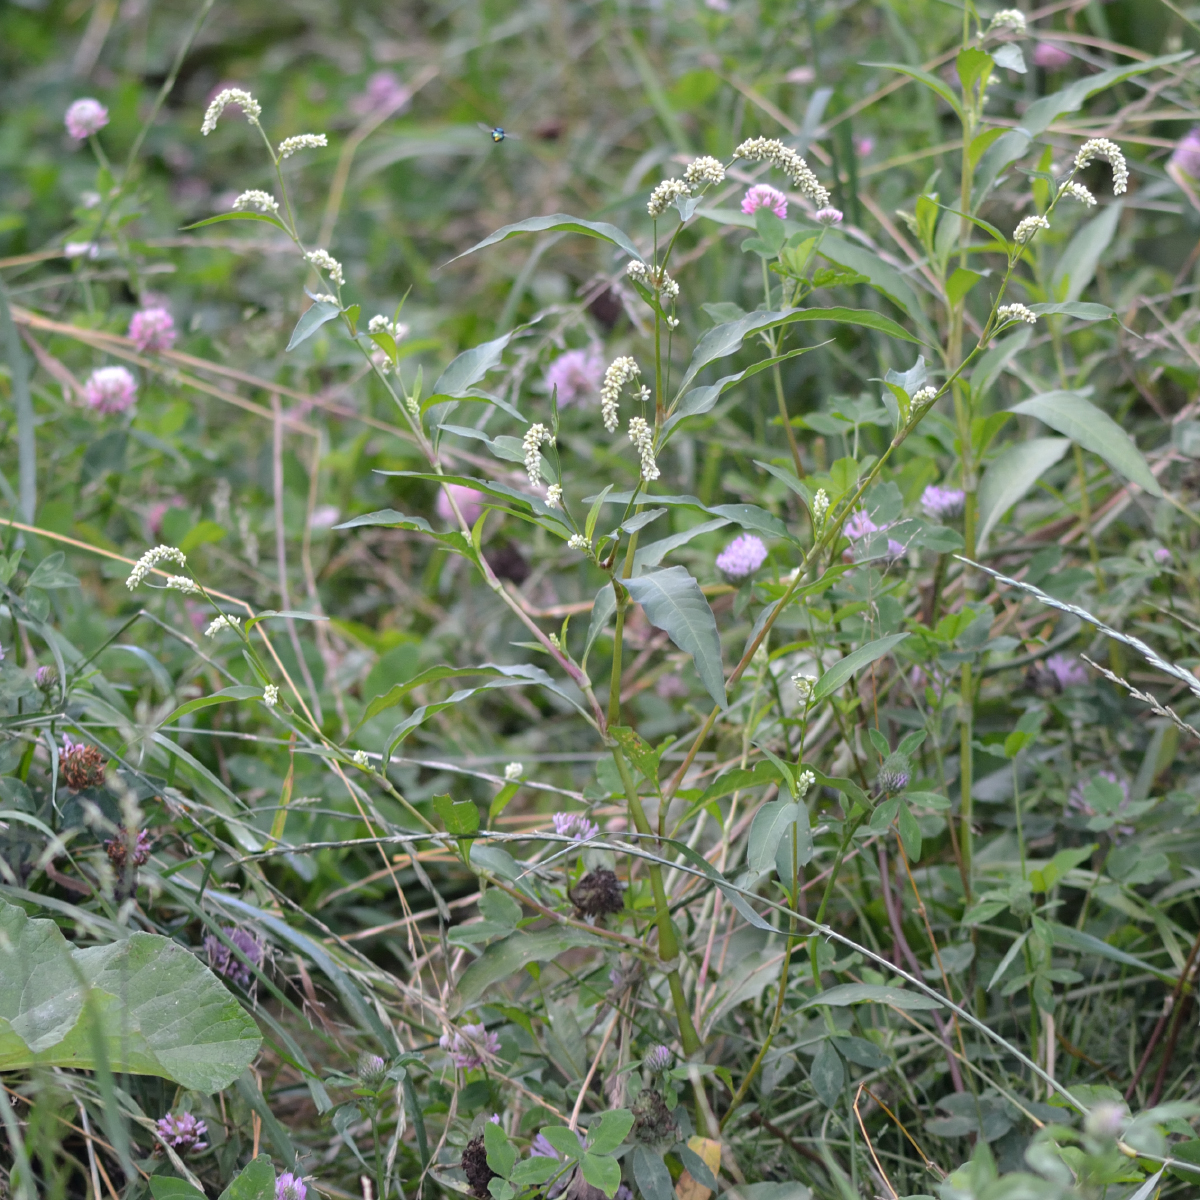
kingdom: Plantae
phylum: Tracheophyta
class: Magnoliopsida
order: Caryophyllales
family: Polygonaceae
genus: Persicaria
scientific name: Persicaria lapathifolia
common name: Curlytop knotweed
